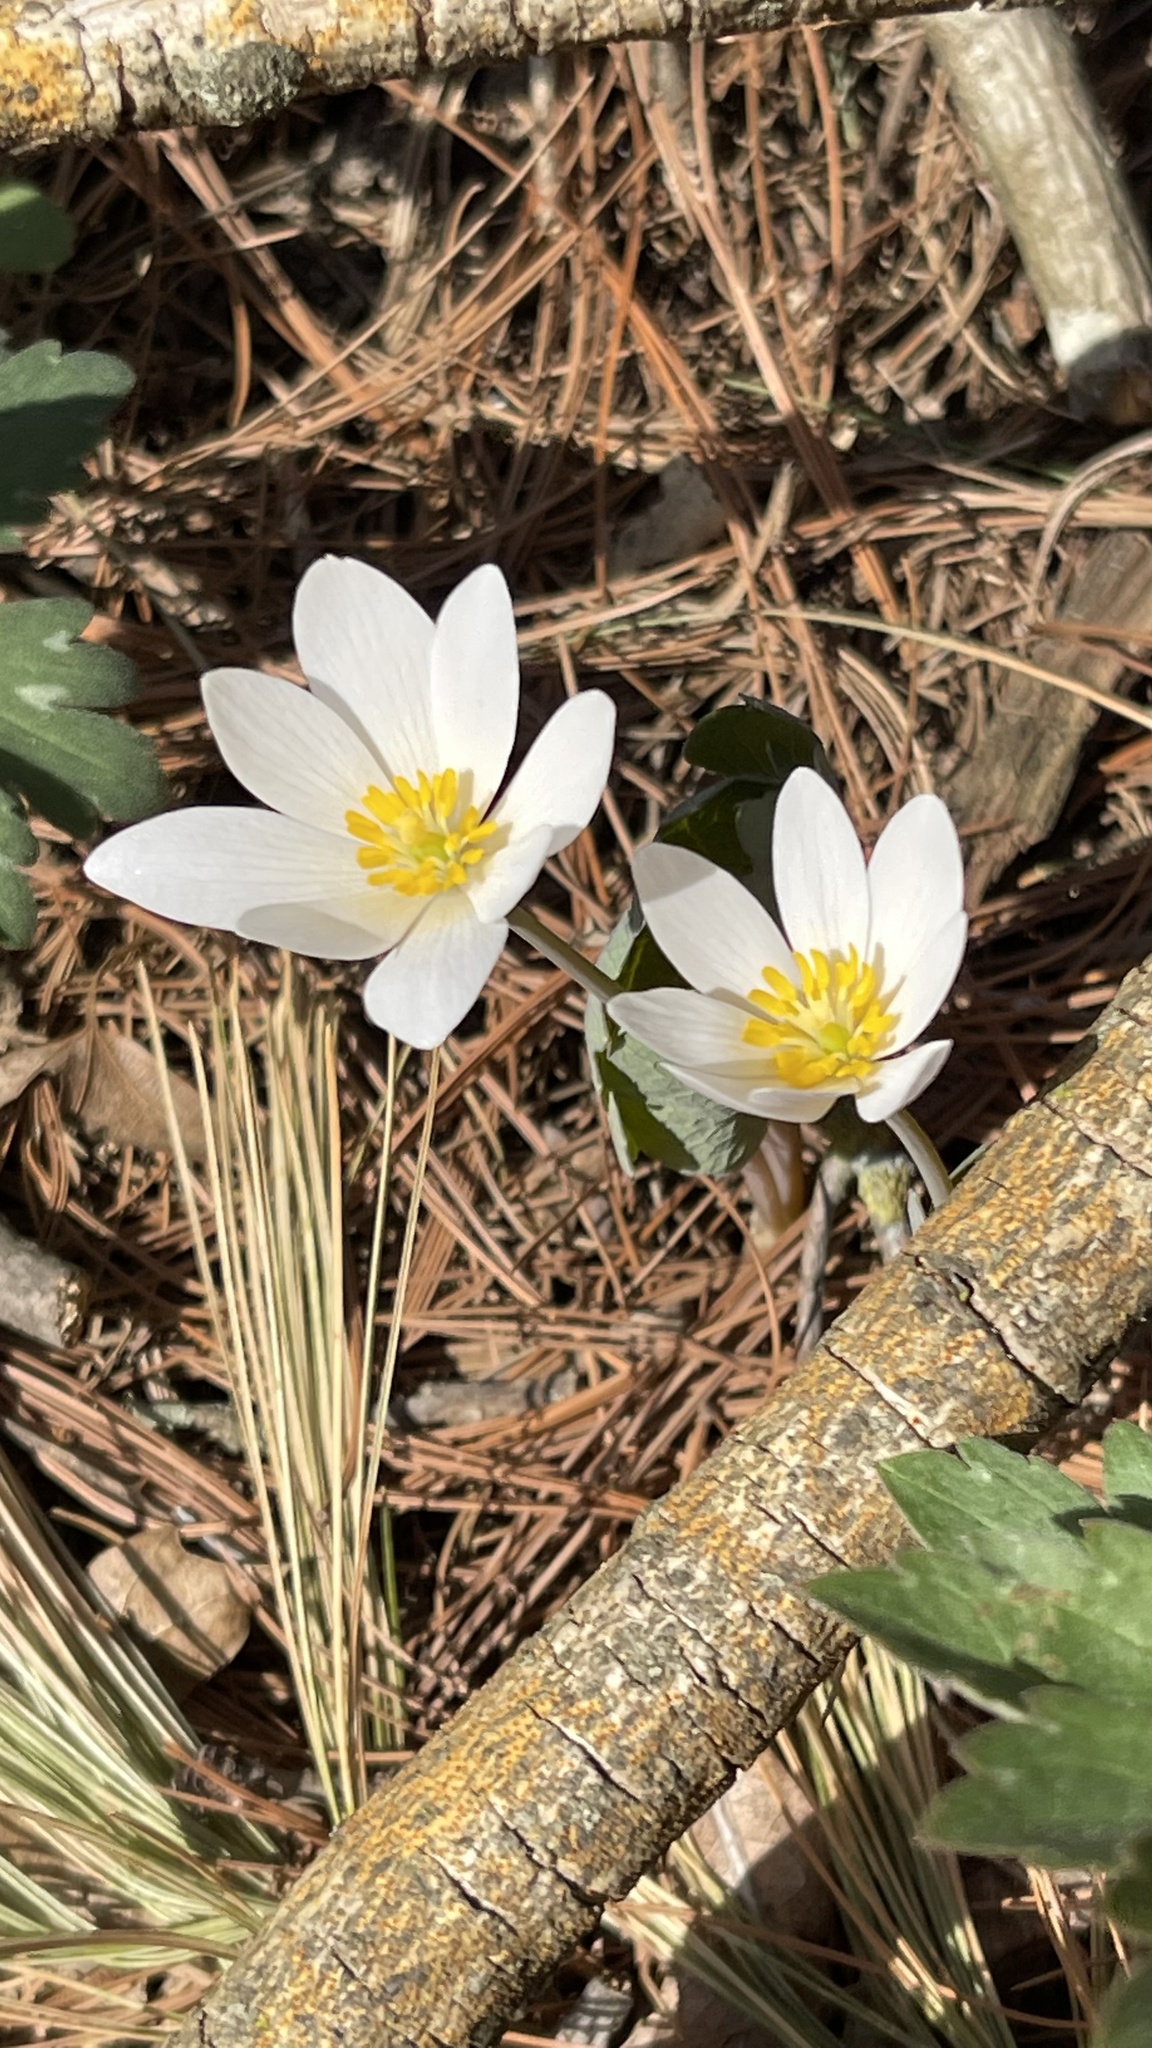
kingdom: Plantae
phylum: Tracheophyta
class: Magnoliopsida
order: Ranunculales
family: Papaveraceae
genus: Sanguinaria
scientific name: Sanguinaria canadensis
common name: Bloodroot
